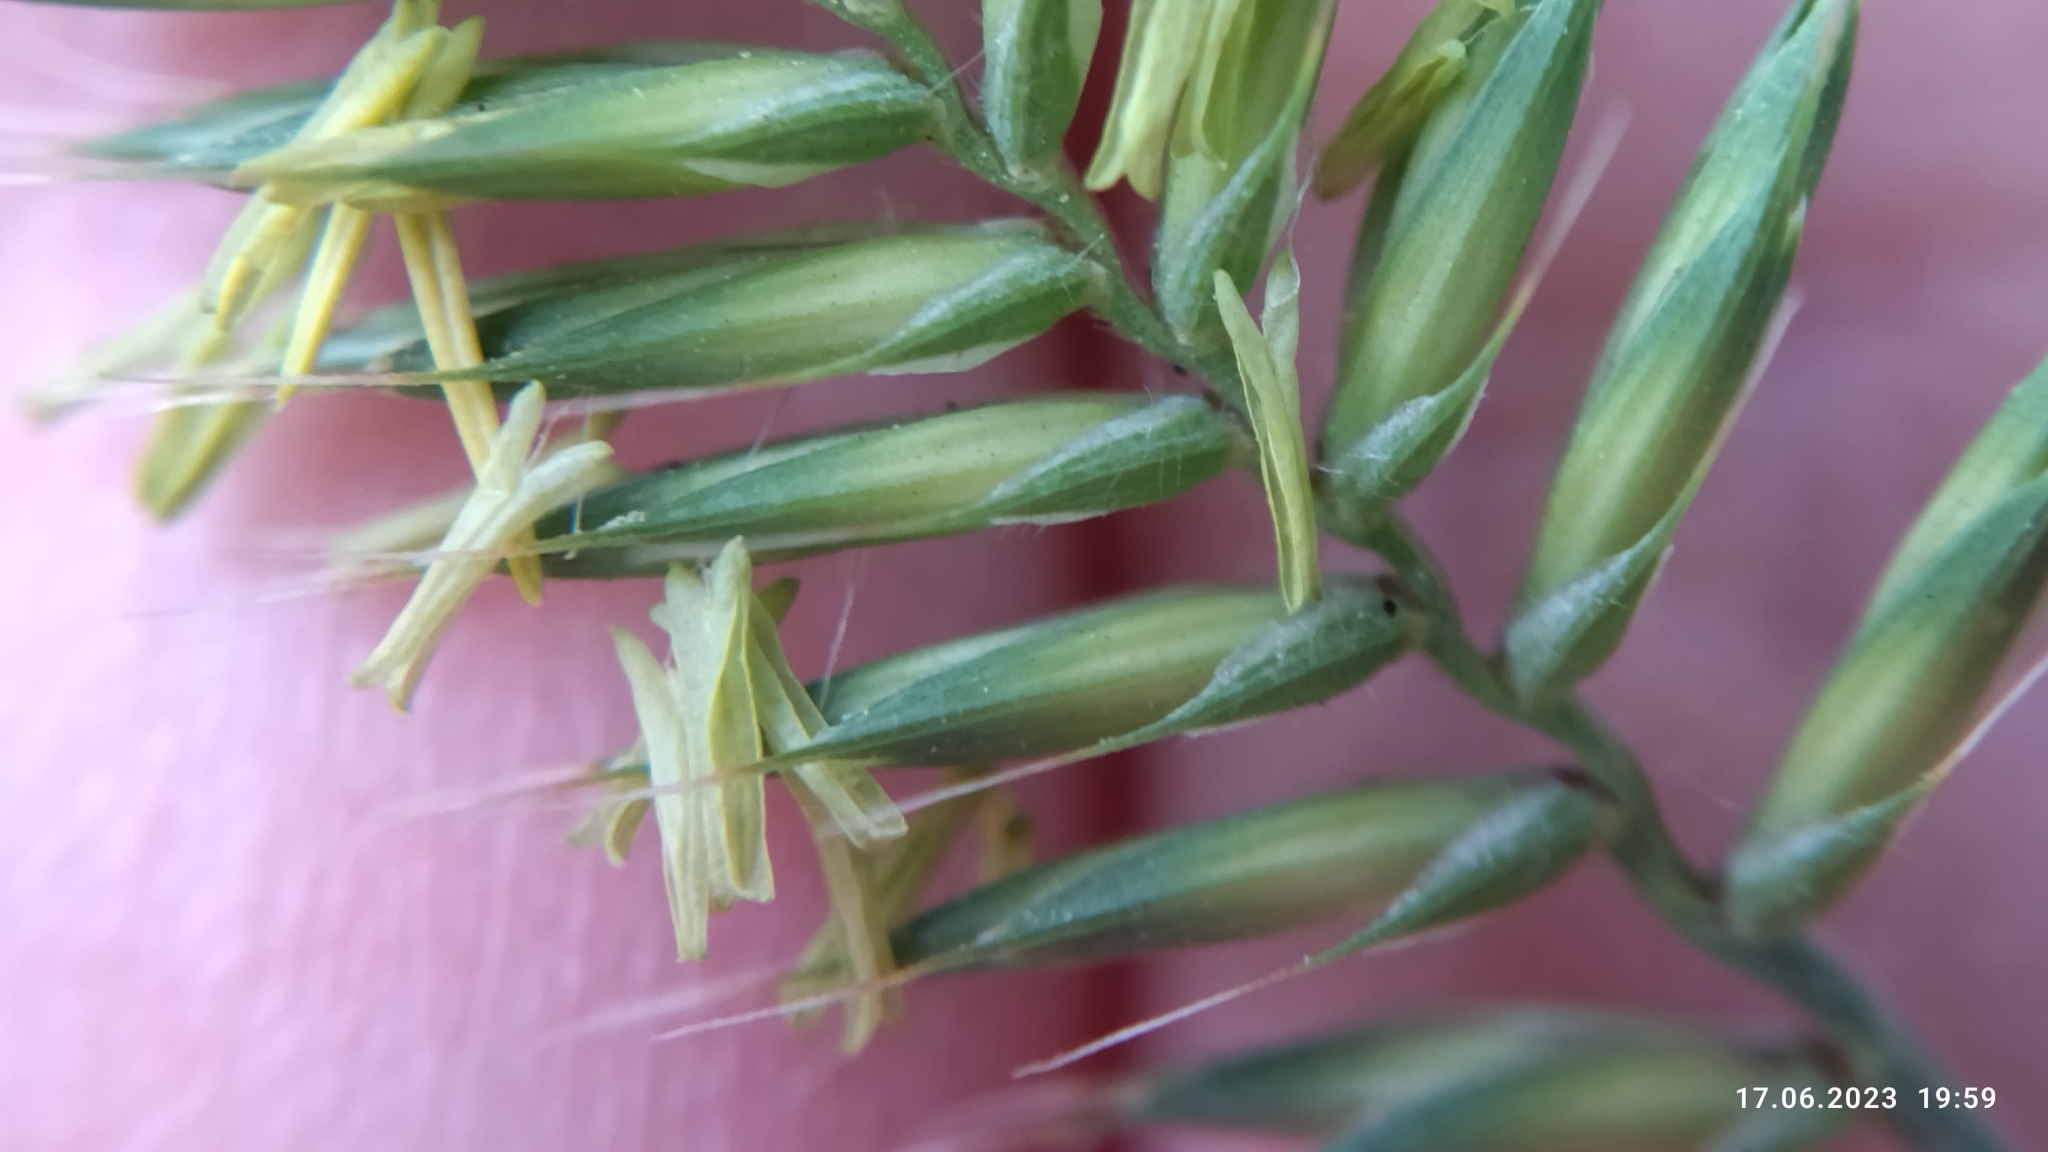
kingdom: Plantae
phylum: Tracheophyta
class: Liliopsida
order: Poales
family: Poaceae
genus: Agropyron
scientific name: Agropyron cristatum
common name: Crested wheatgrass
